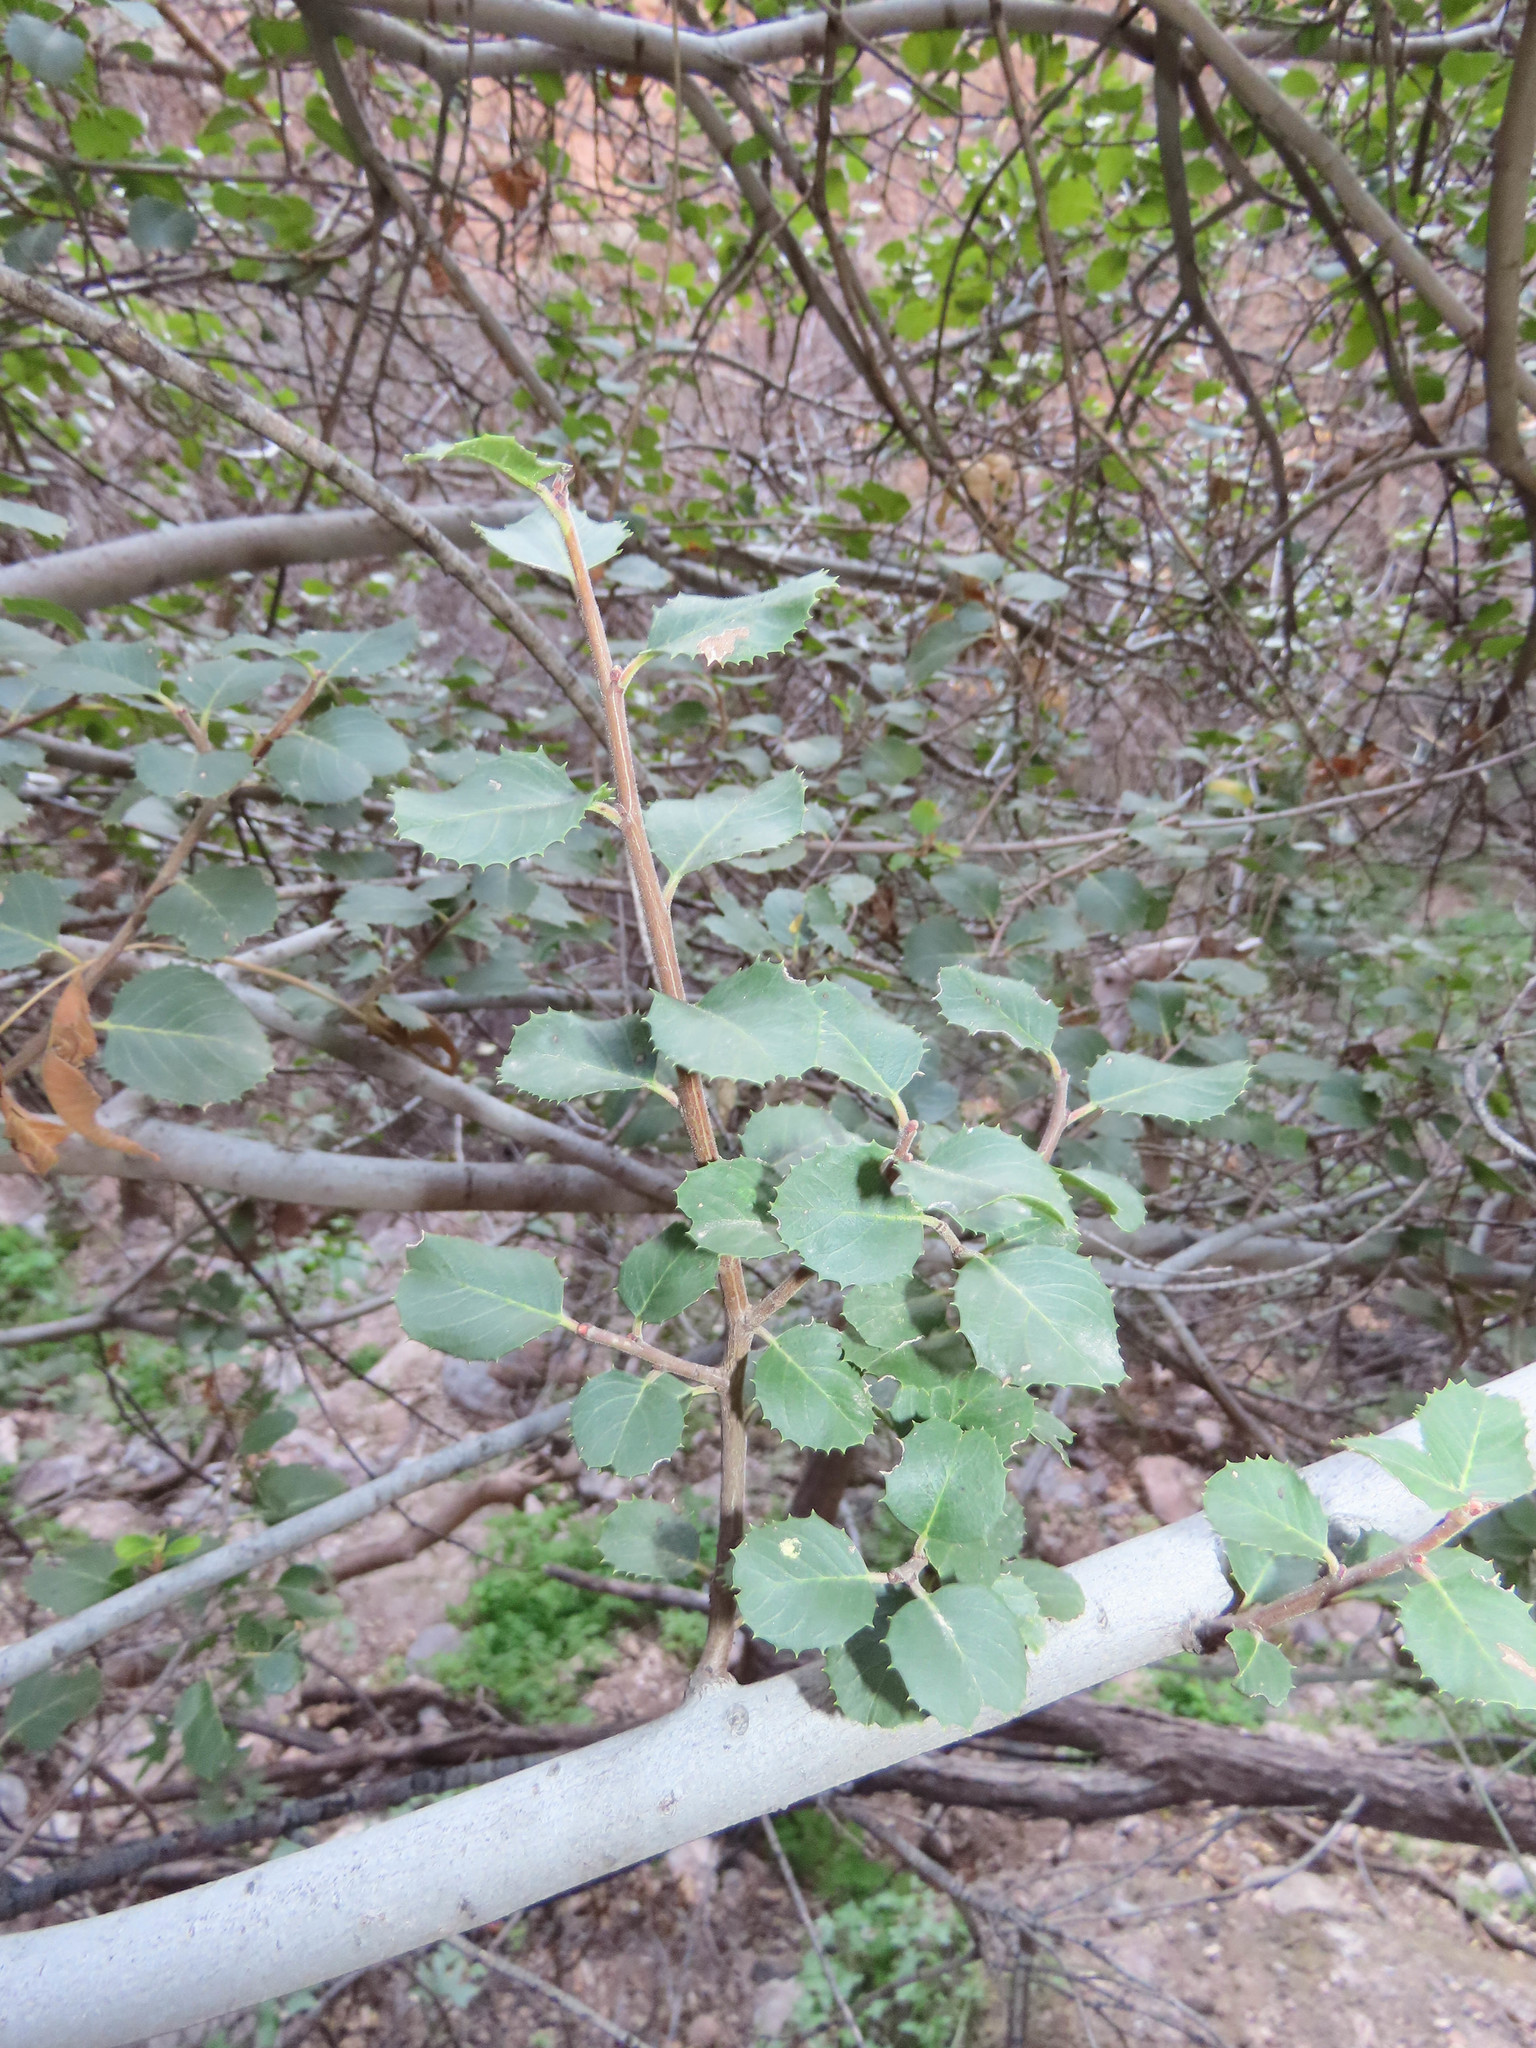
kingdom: Plantae
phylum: Tracheophyta
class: Magnoliopsida
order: Rosales
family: Rhamnaceae
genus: Endotropis
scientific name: Endotropis crocea
